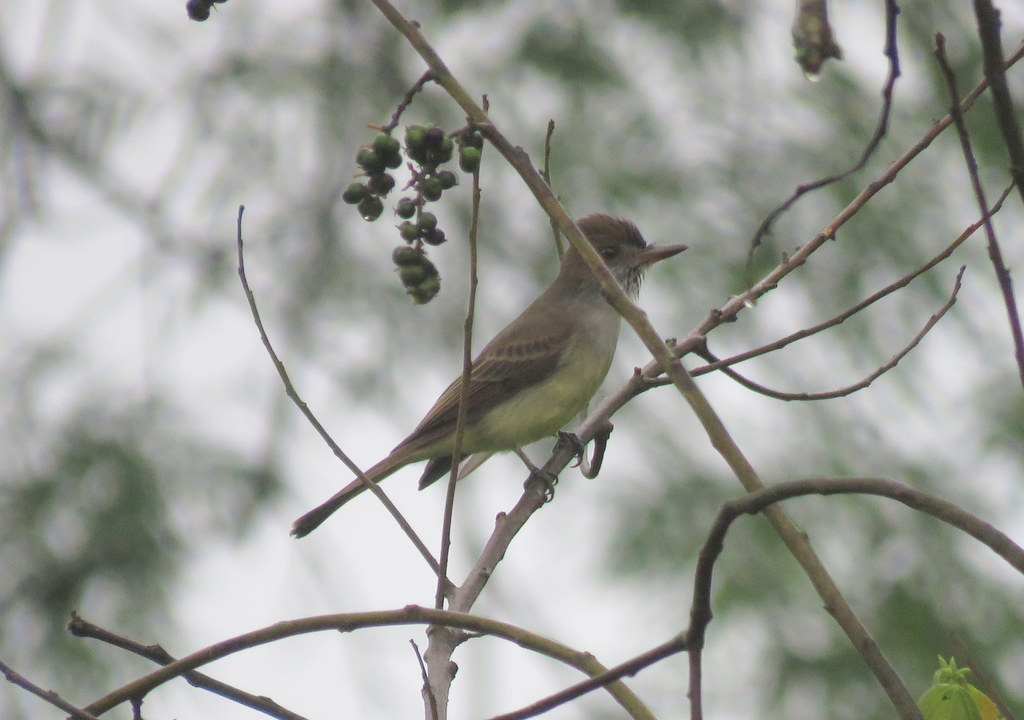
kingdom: Animalia
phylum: Chordata
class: Aves
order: Passeriformes
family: Tyrannidae
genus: Myiarchus
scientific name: Myiarchus swainsoni
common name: Swainson's flycatcher
